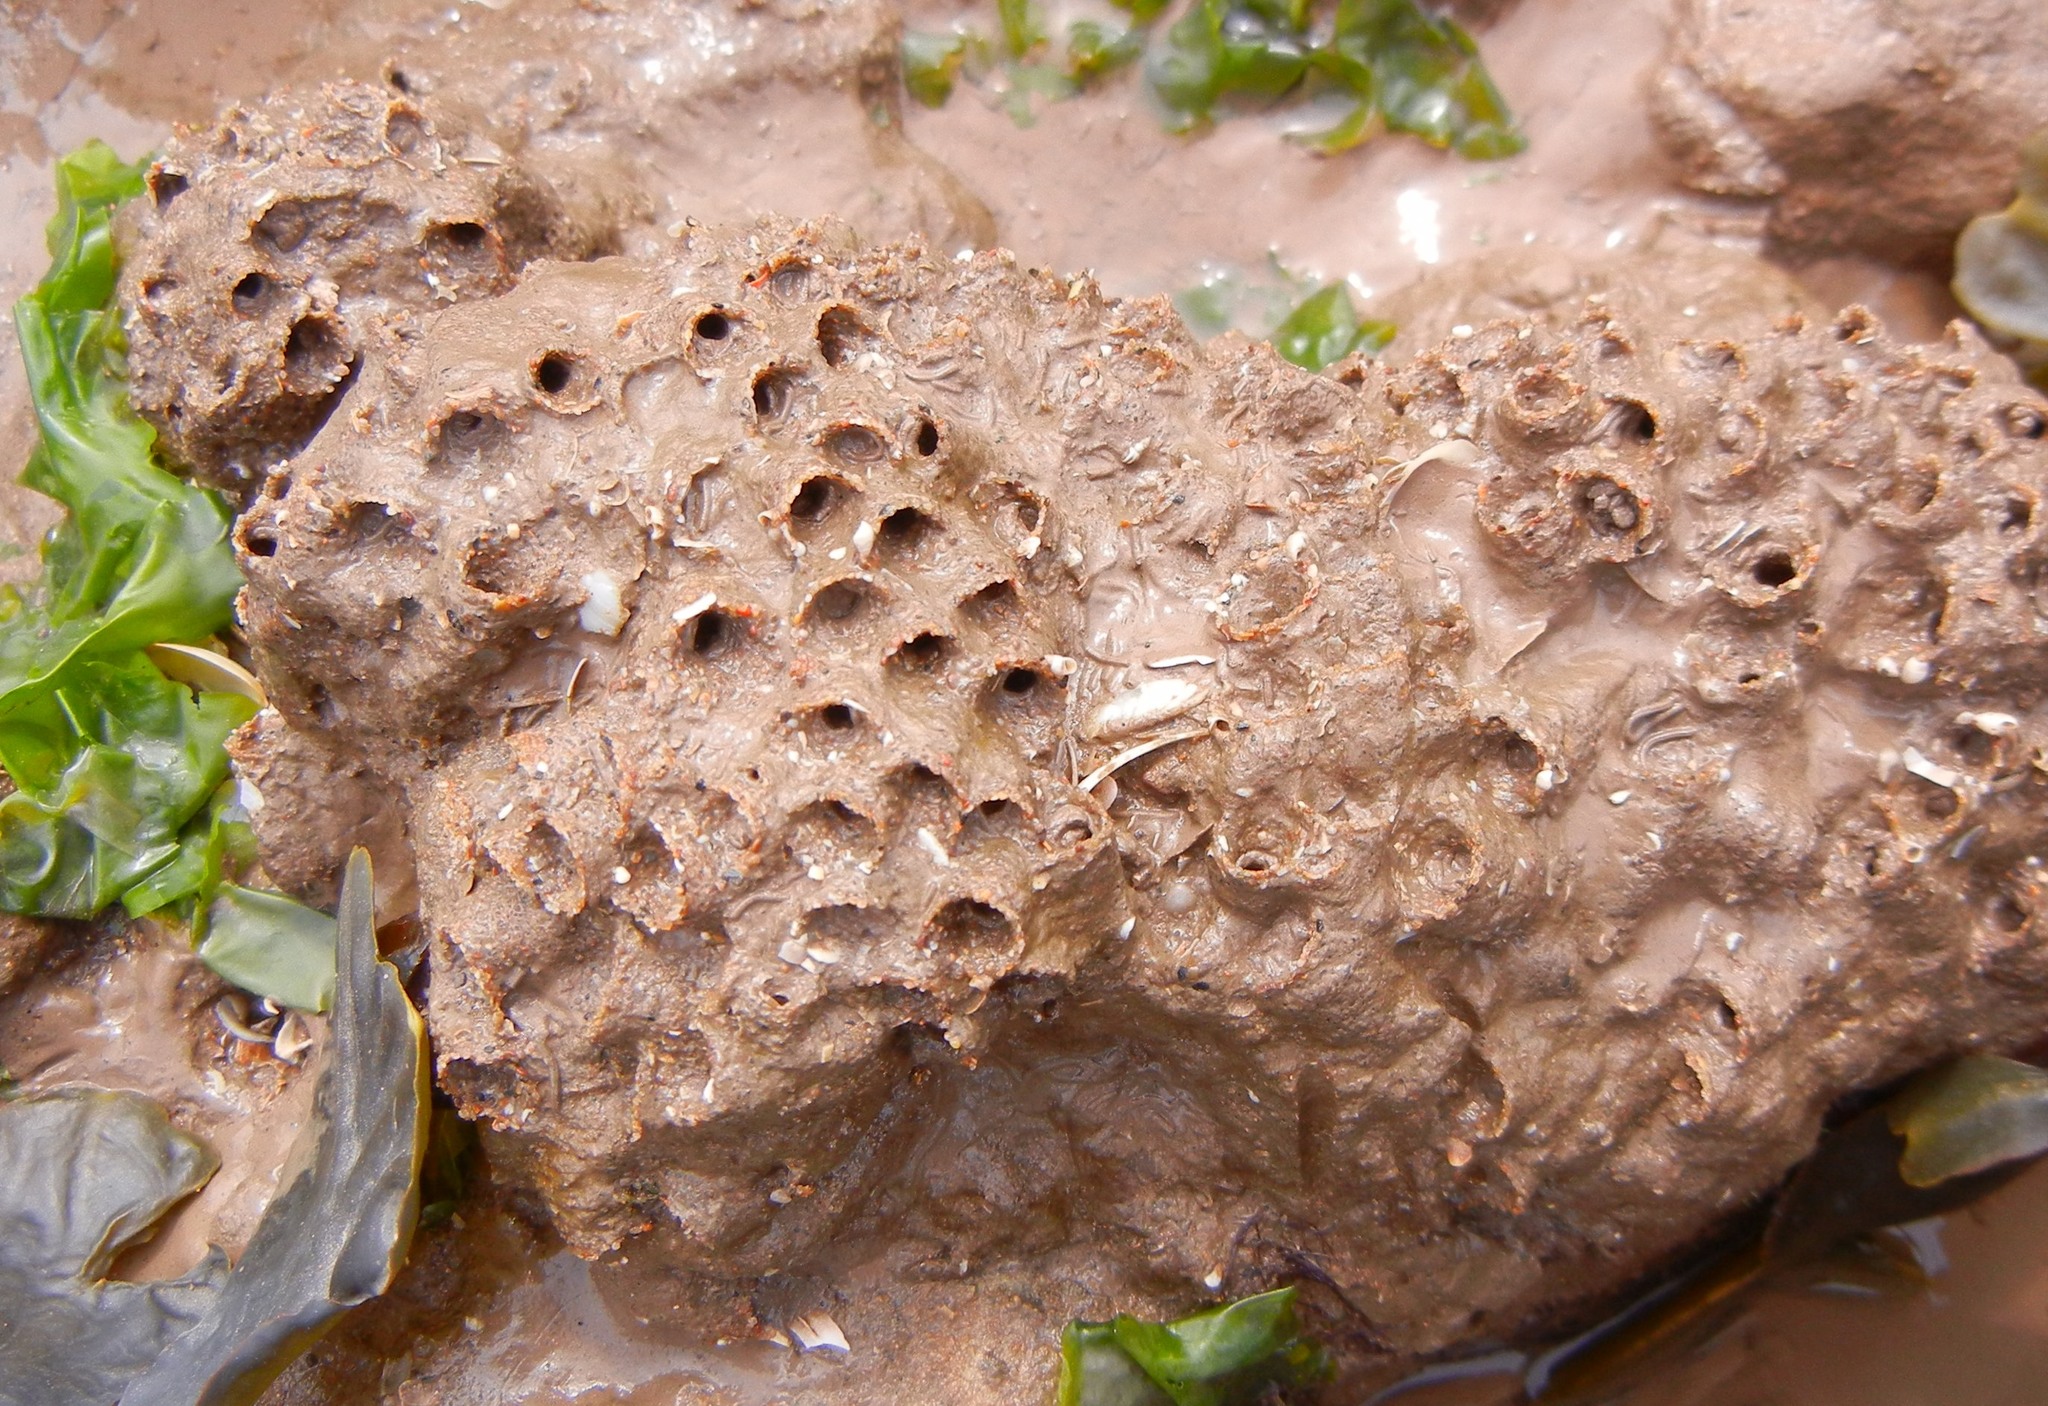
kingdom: Animalia
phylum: Annelida
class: Polychaeta
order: Sabellida
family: Sabellariidae
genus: Sabellaria
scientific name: Sabellaria alveolata
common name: Honeycomb worm
